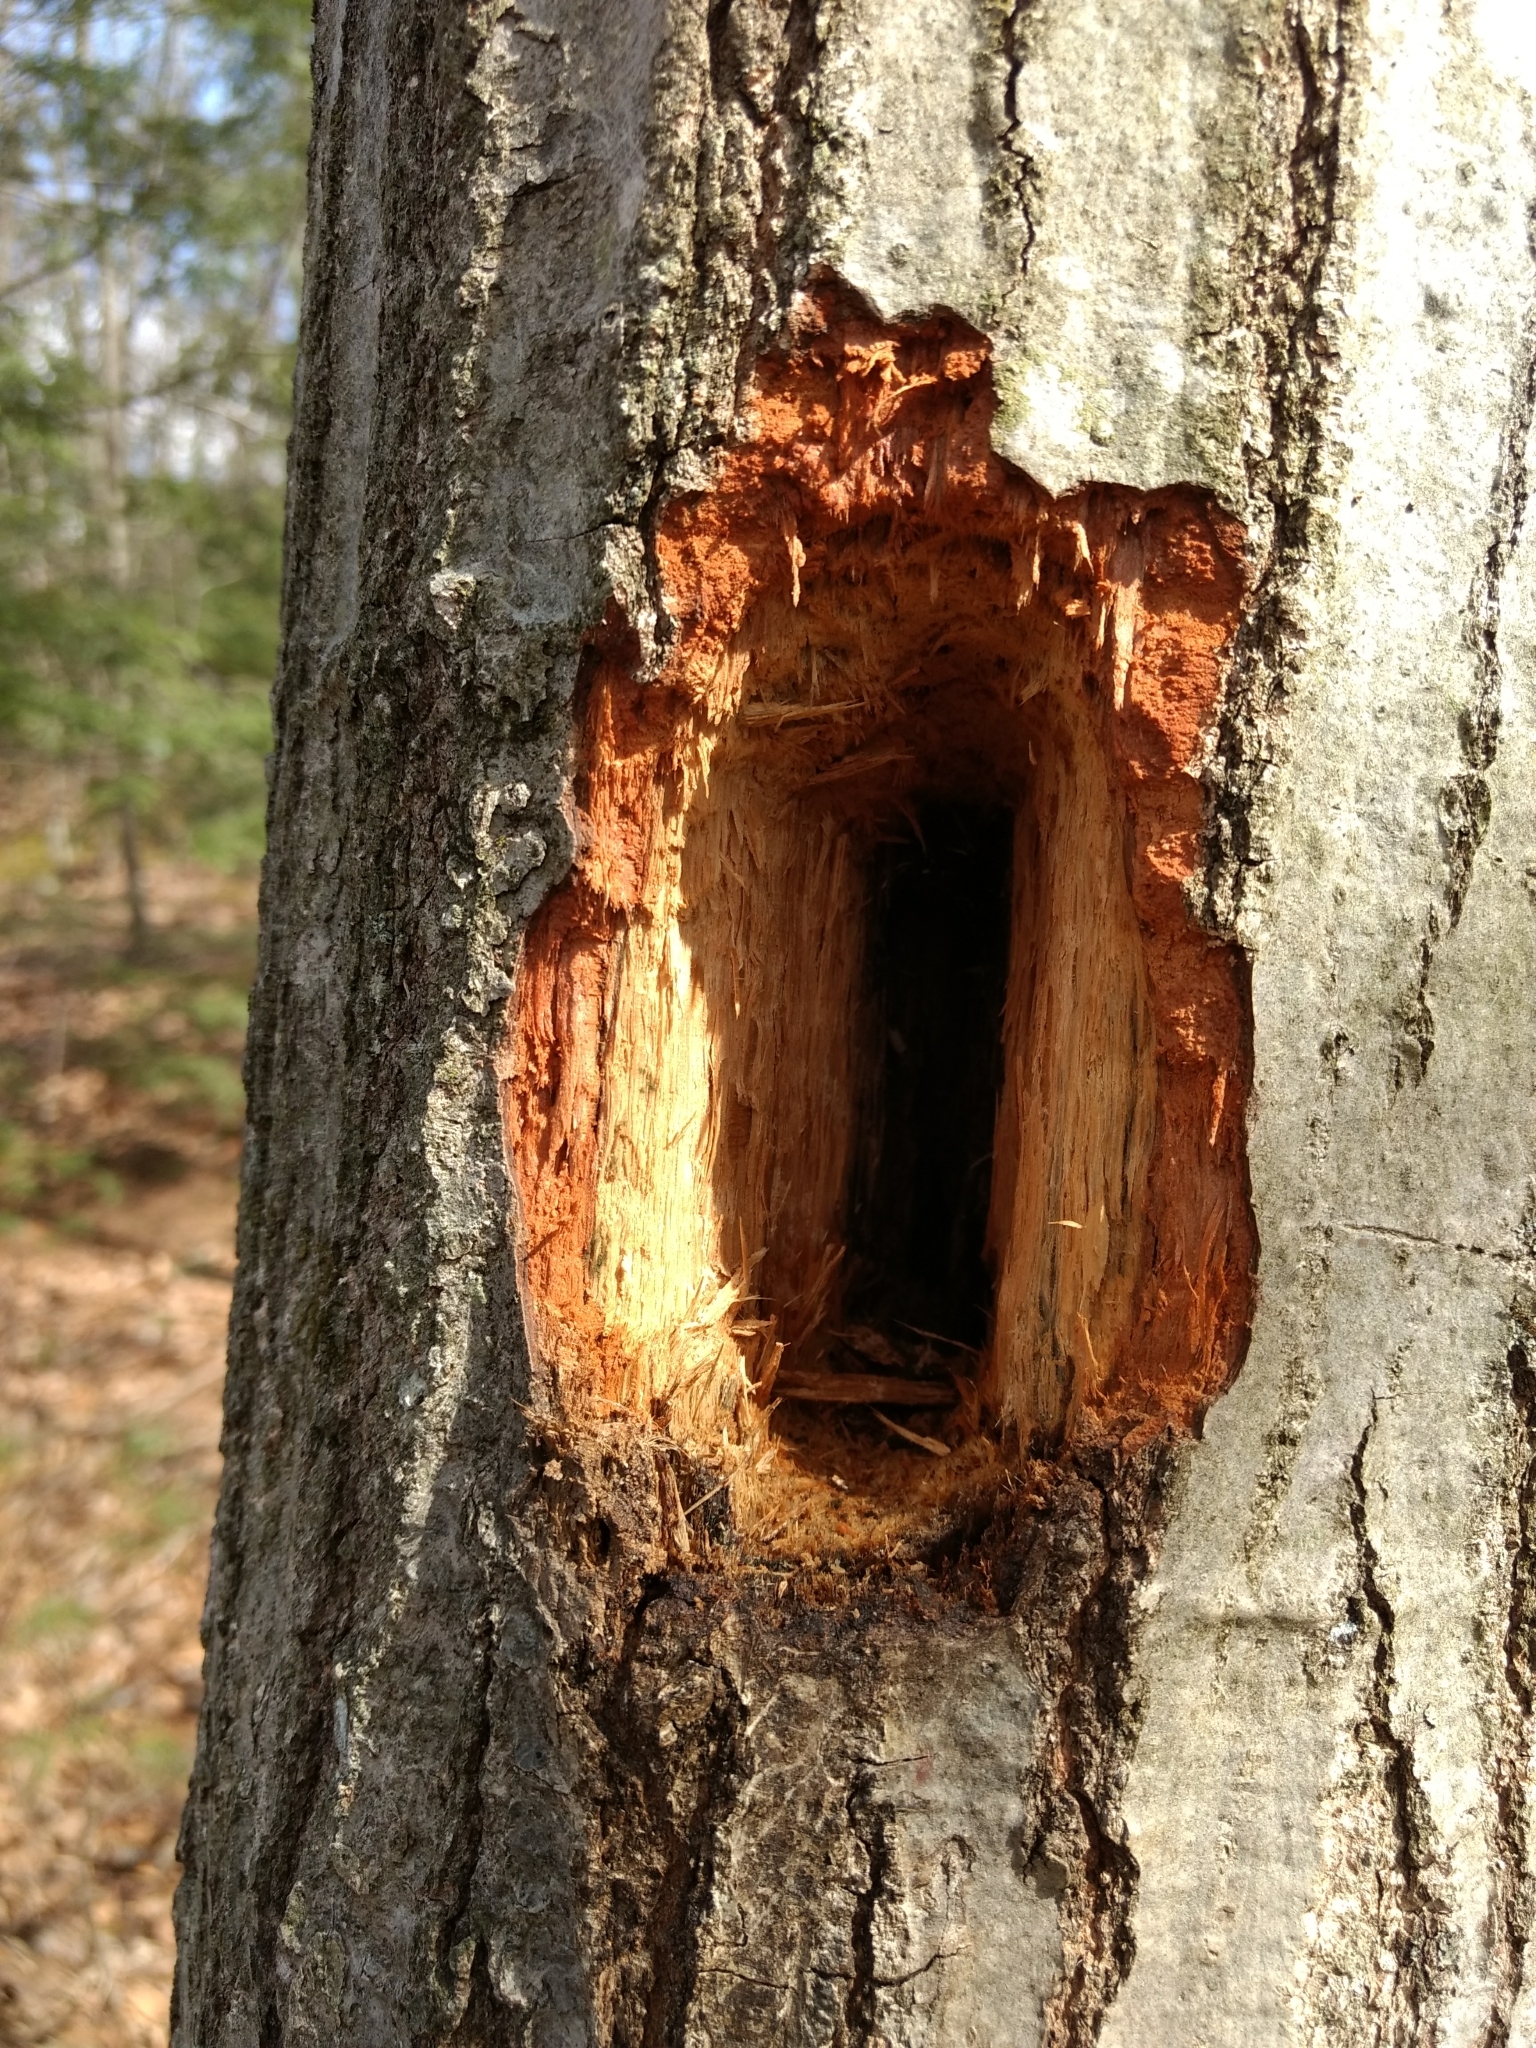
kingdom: Animalia
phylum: Chordata
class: Aves
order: Piciformes
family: Picidae
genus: Dryocopus
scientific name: Dryocopus pileatus
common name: Pileated woodpecker
